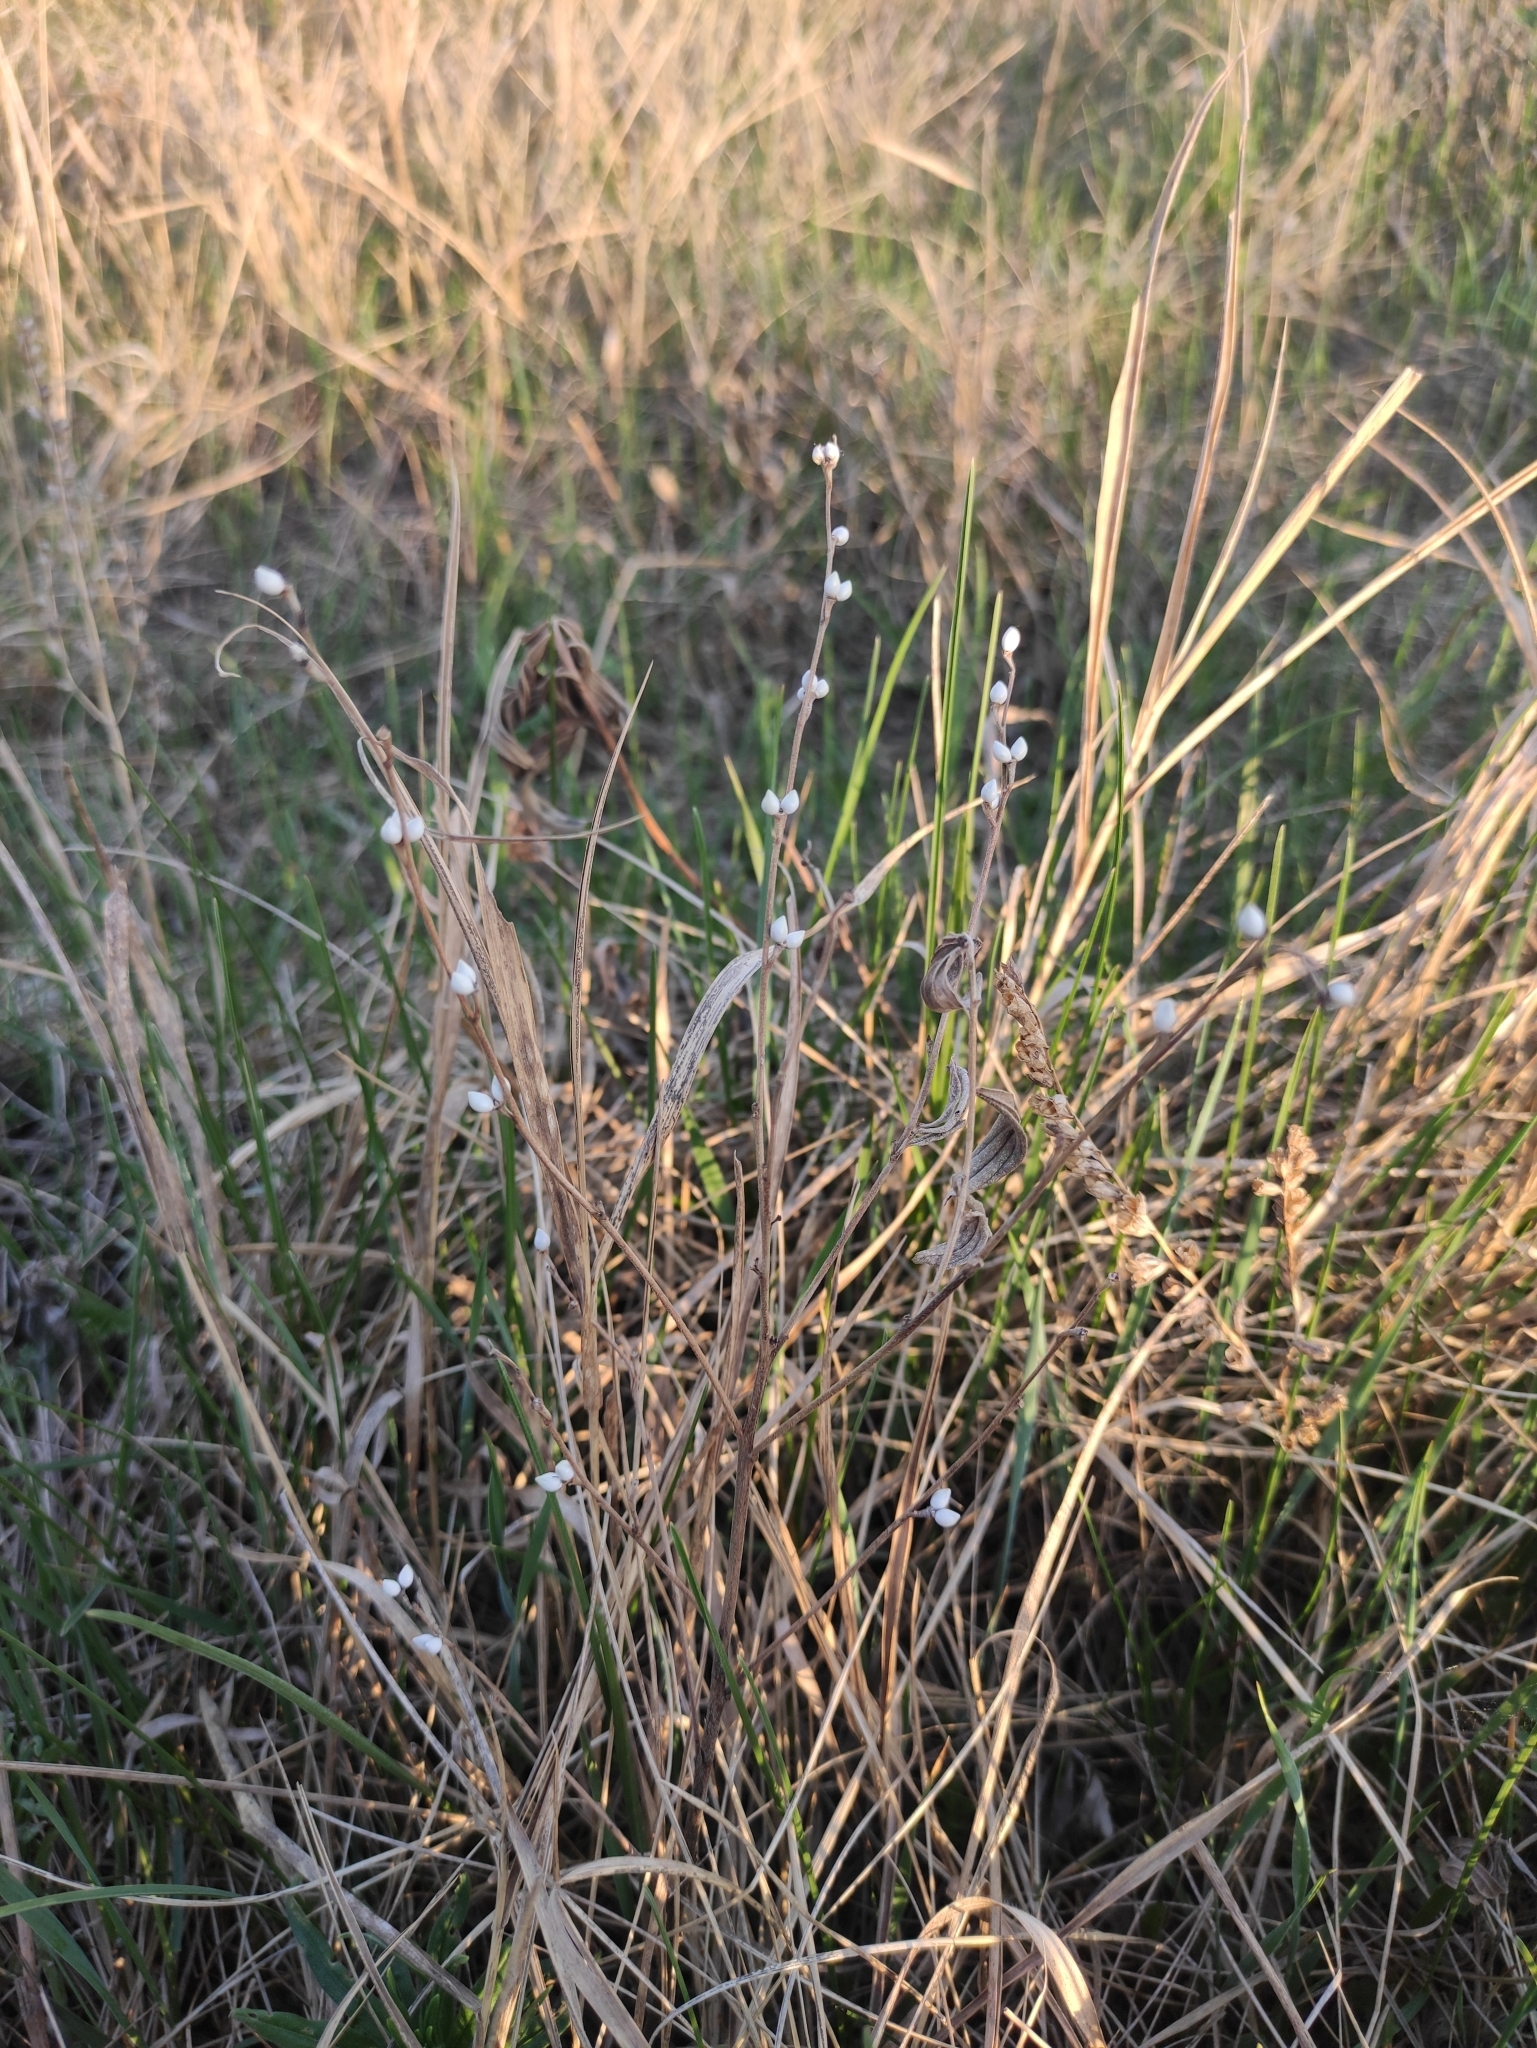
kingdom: Plantae
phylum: Tracheophyta
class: Magnoliopsida
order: Boraginales
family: Boraginaceae
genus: Lithospermum
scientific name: Lithospermum officinale
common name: Common gromwell
